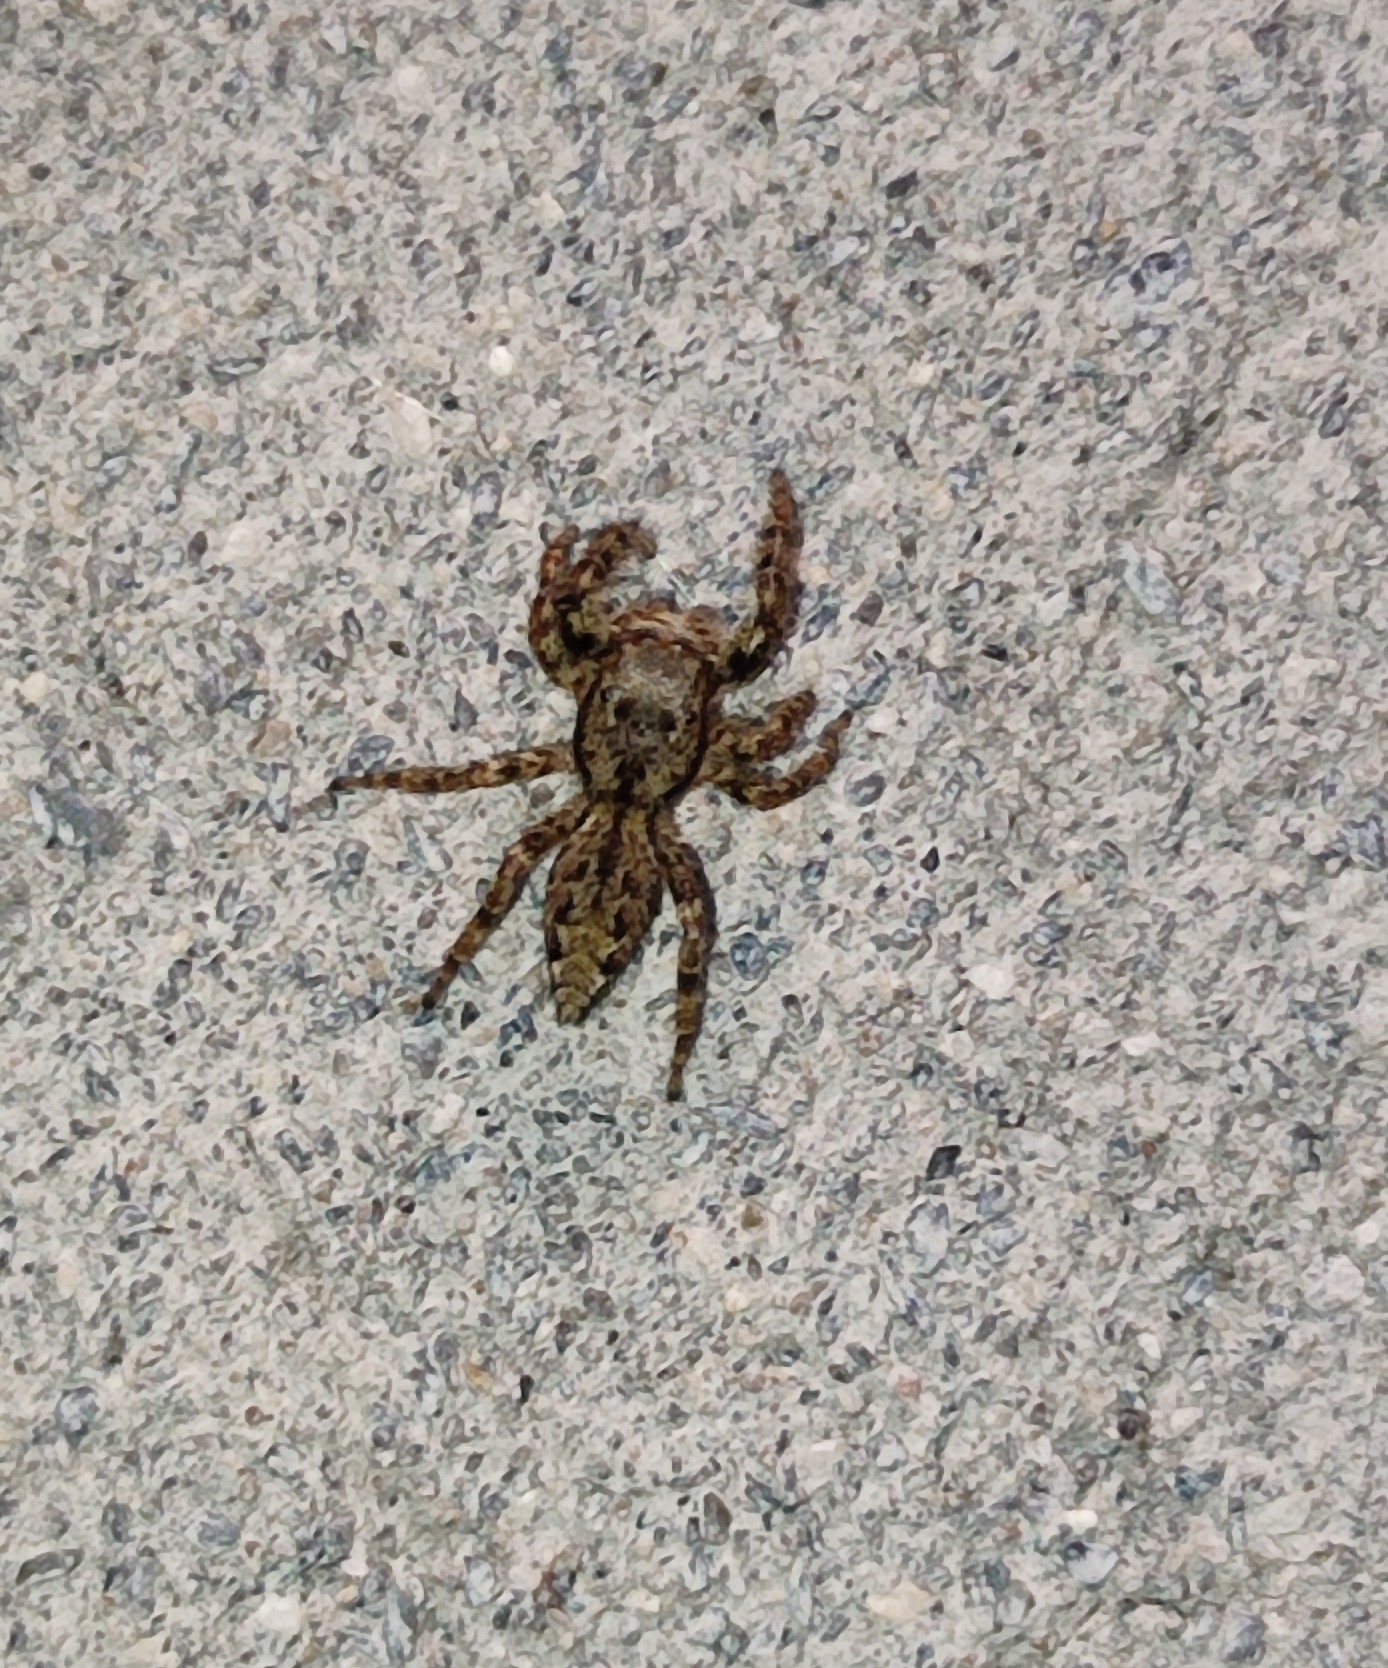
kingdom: Animalia
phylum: Arthropoda
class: Arachnida
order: Araneae
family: Salticidae
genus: Marpissa
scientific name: Marpissa muscosa
